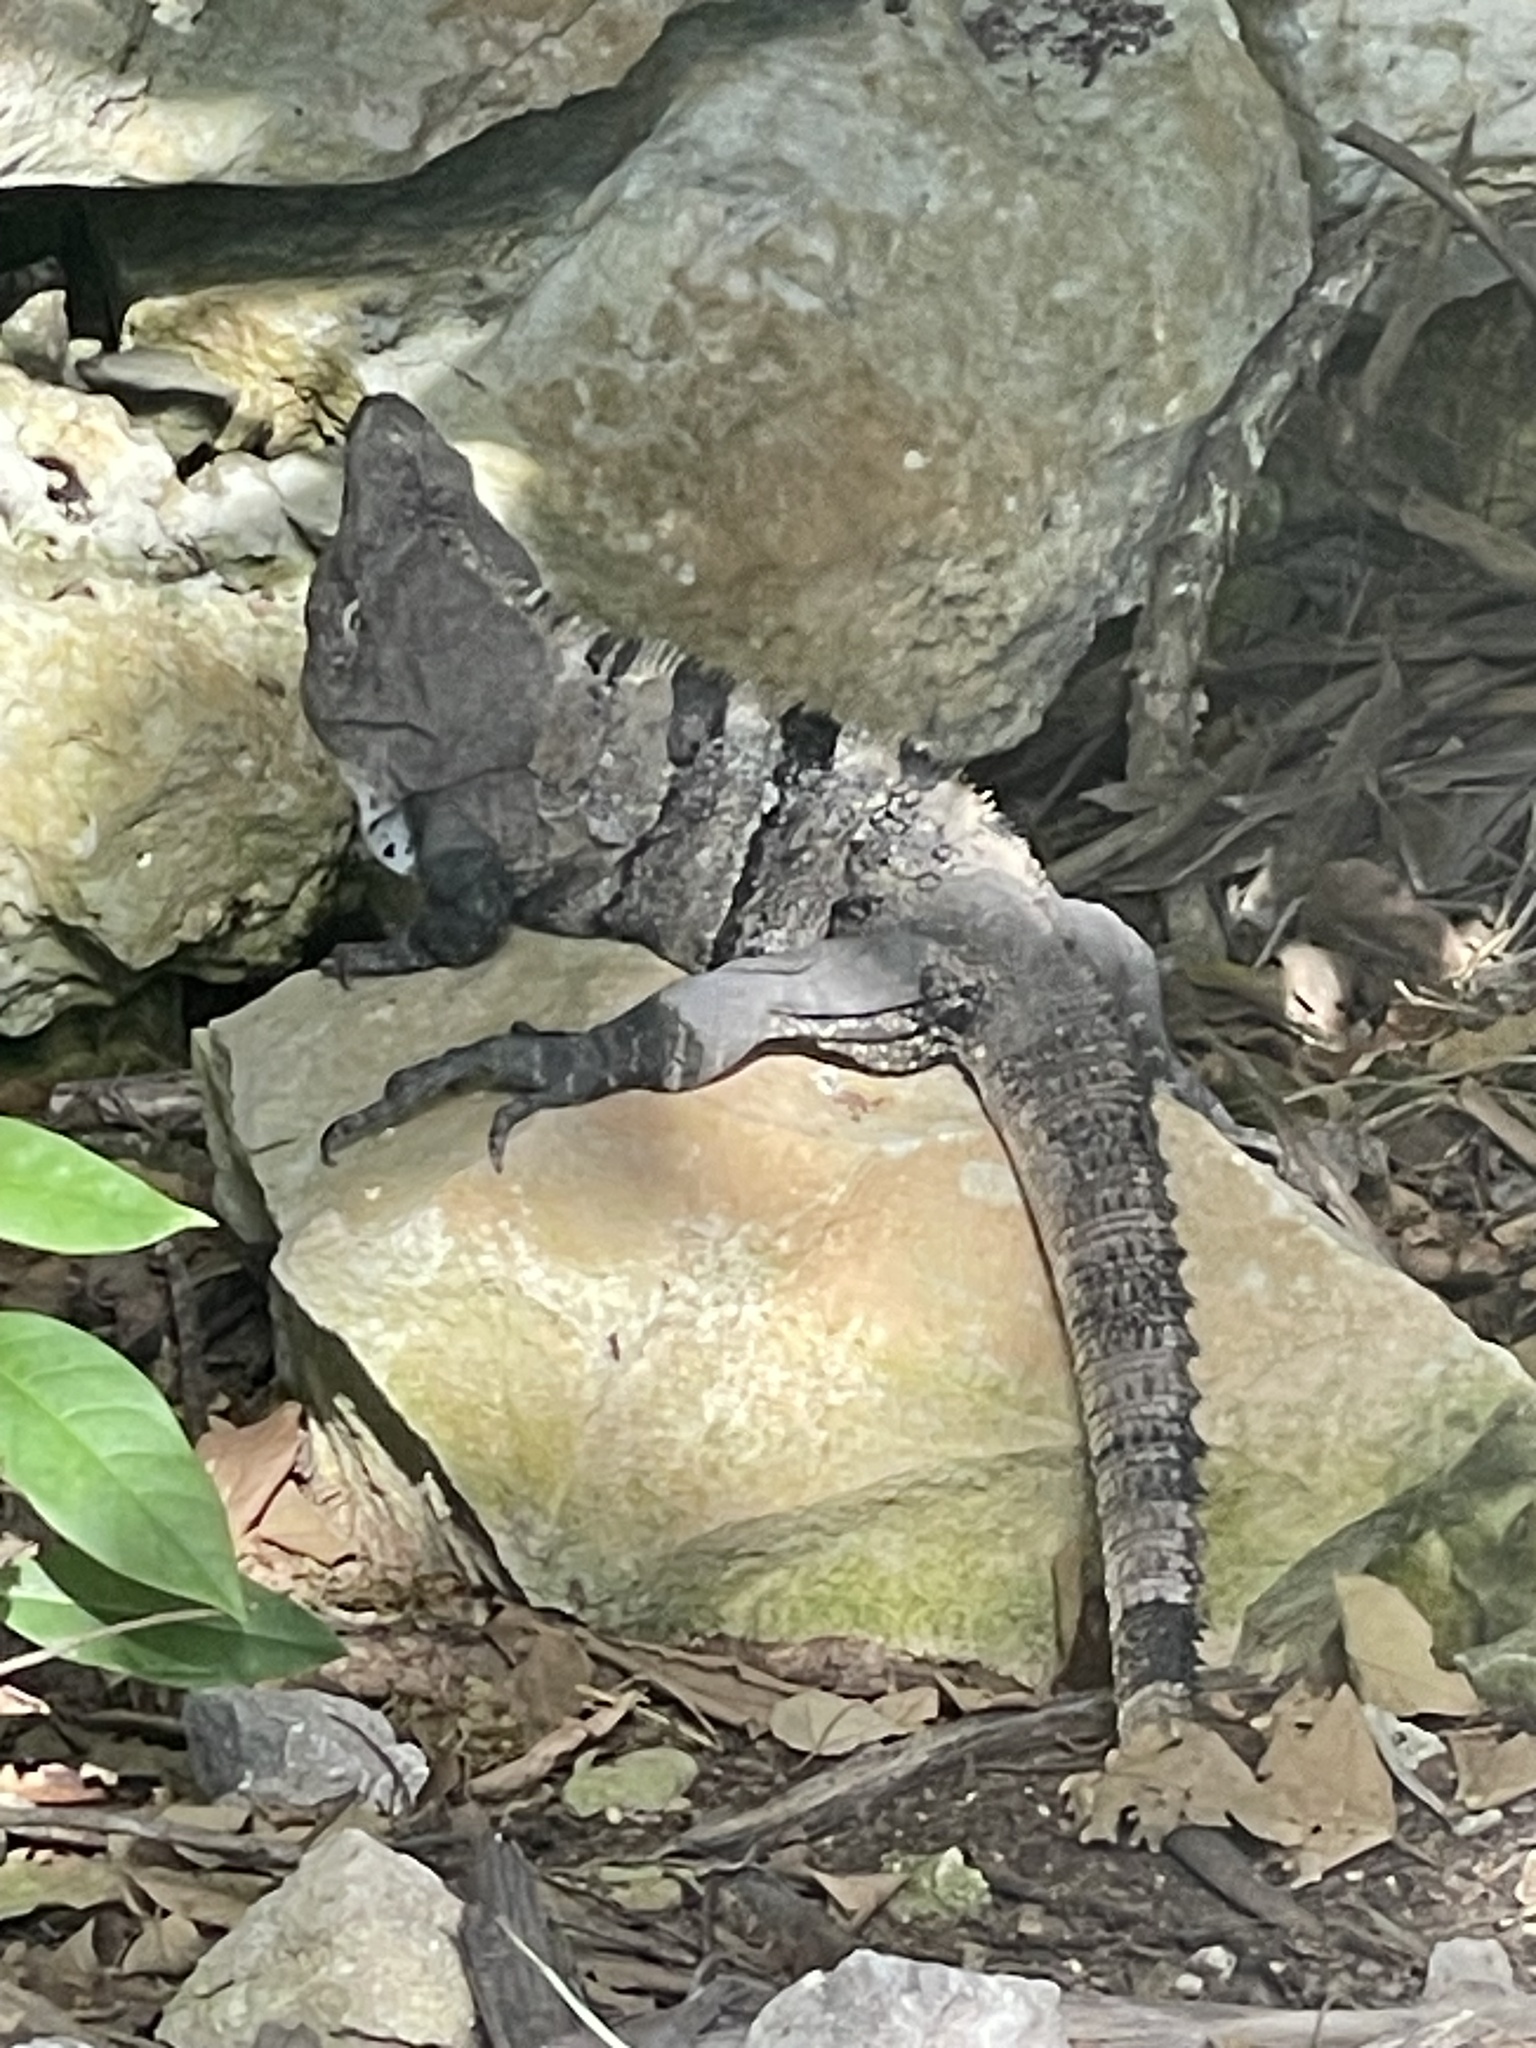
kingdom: Animalia
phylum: Chordata
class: Squamata
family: Iguanidae
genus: Ctenosaura
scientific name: Ctenosaura similis
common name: Black spiny-tailed iguana
